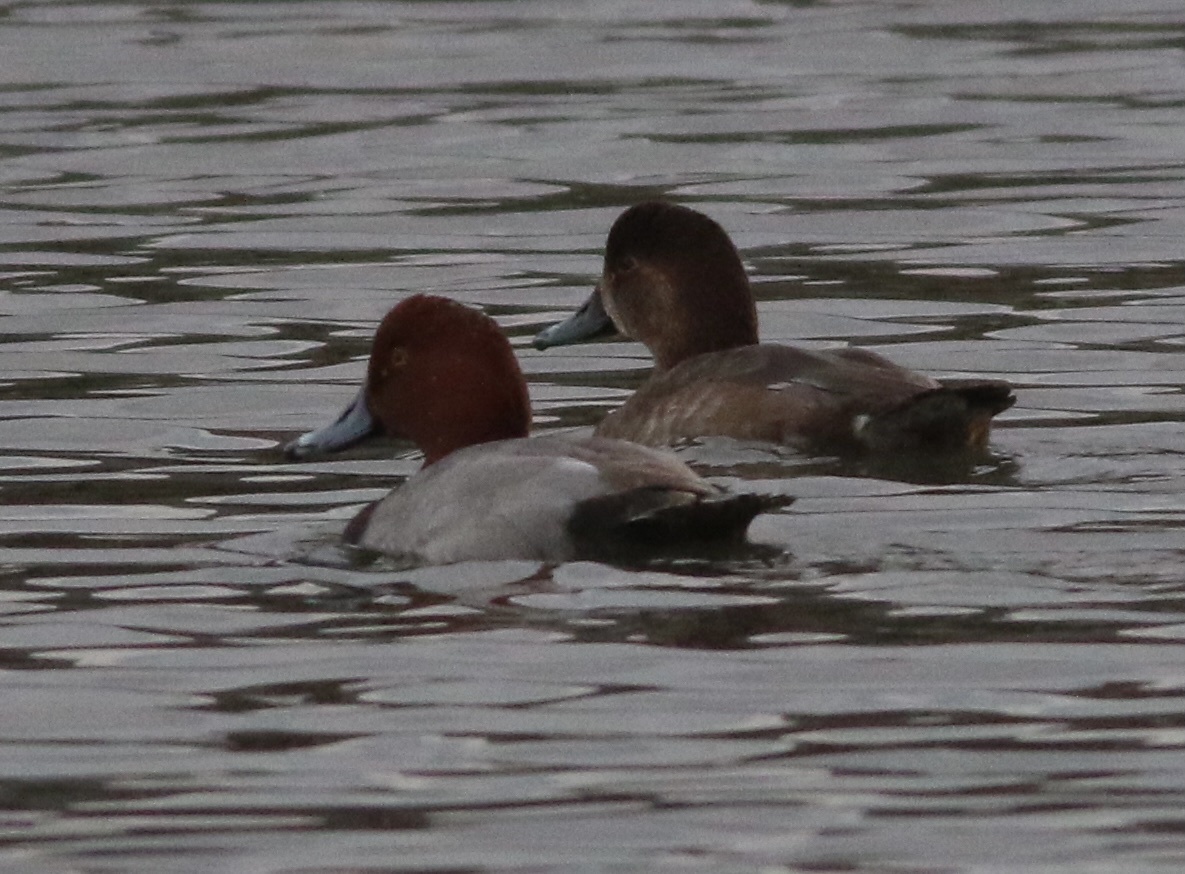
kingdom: Animalia
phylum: Chordata
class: Aves
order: Anseriformes
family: Anatidae
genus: Aythya
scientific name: Aythya americana
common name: Redhead
